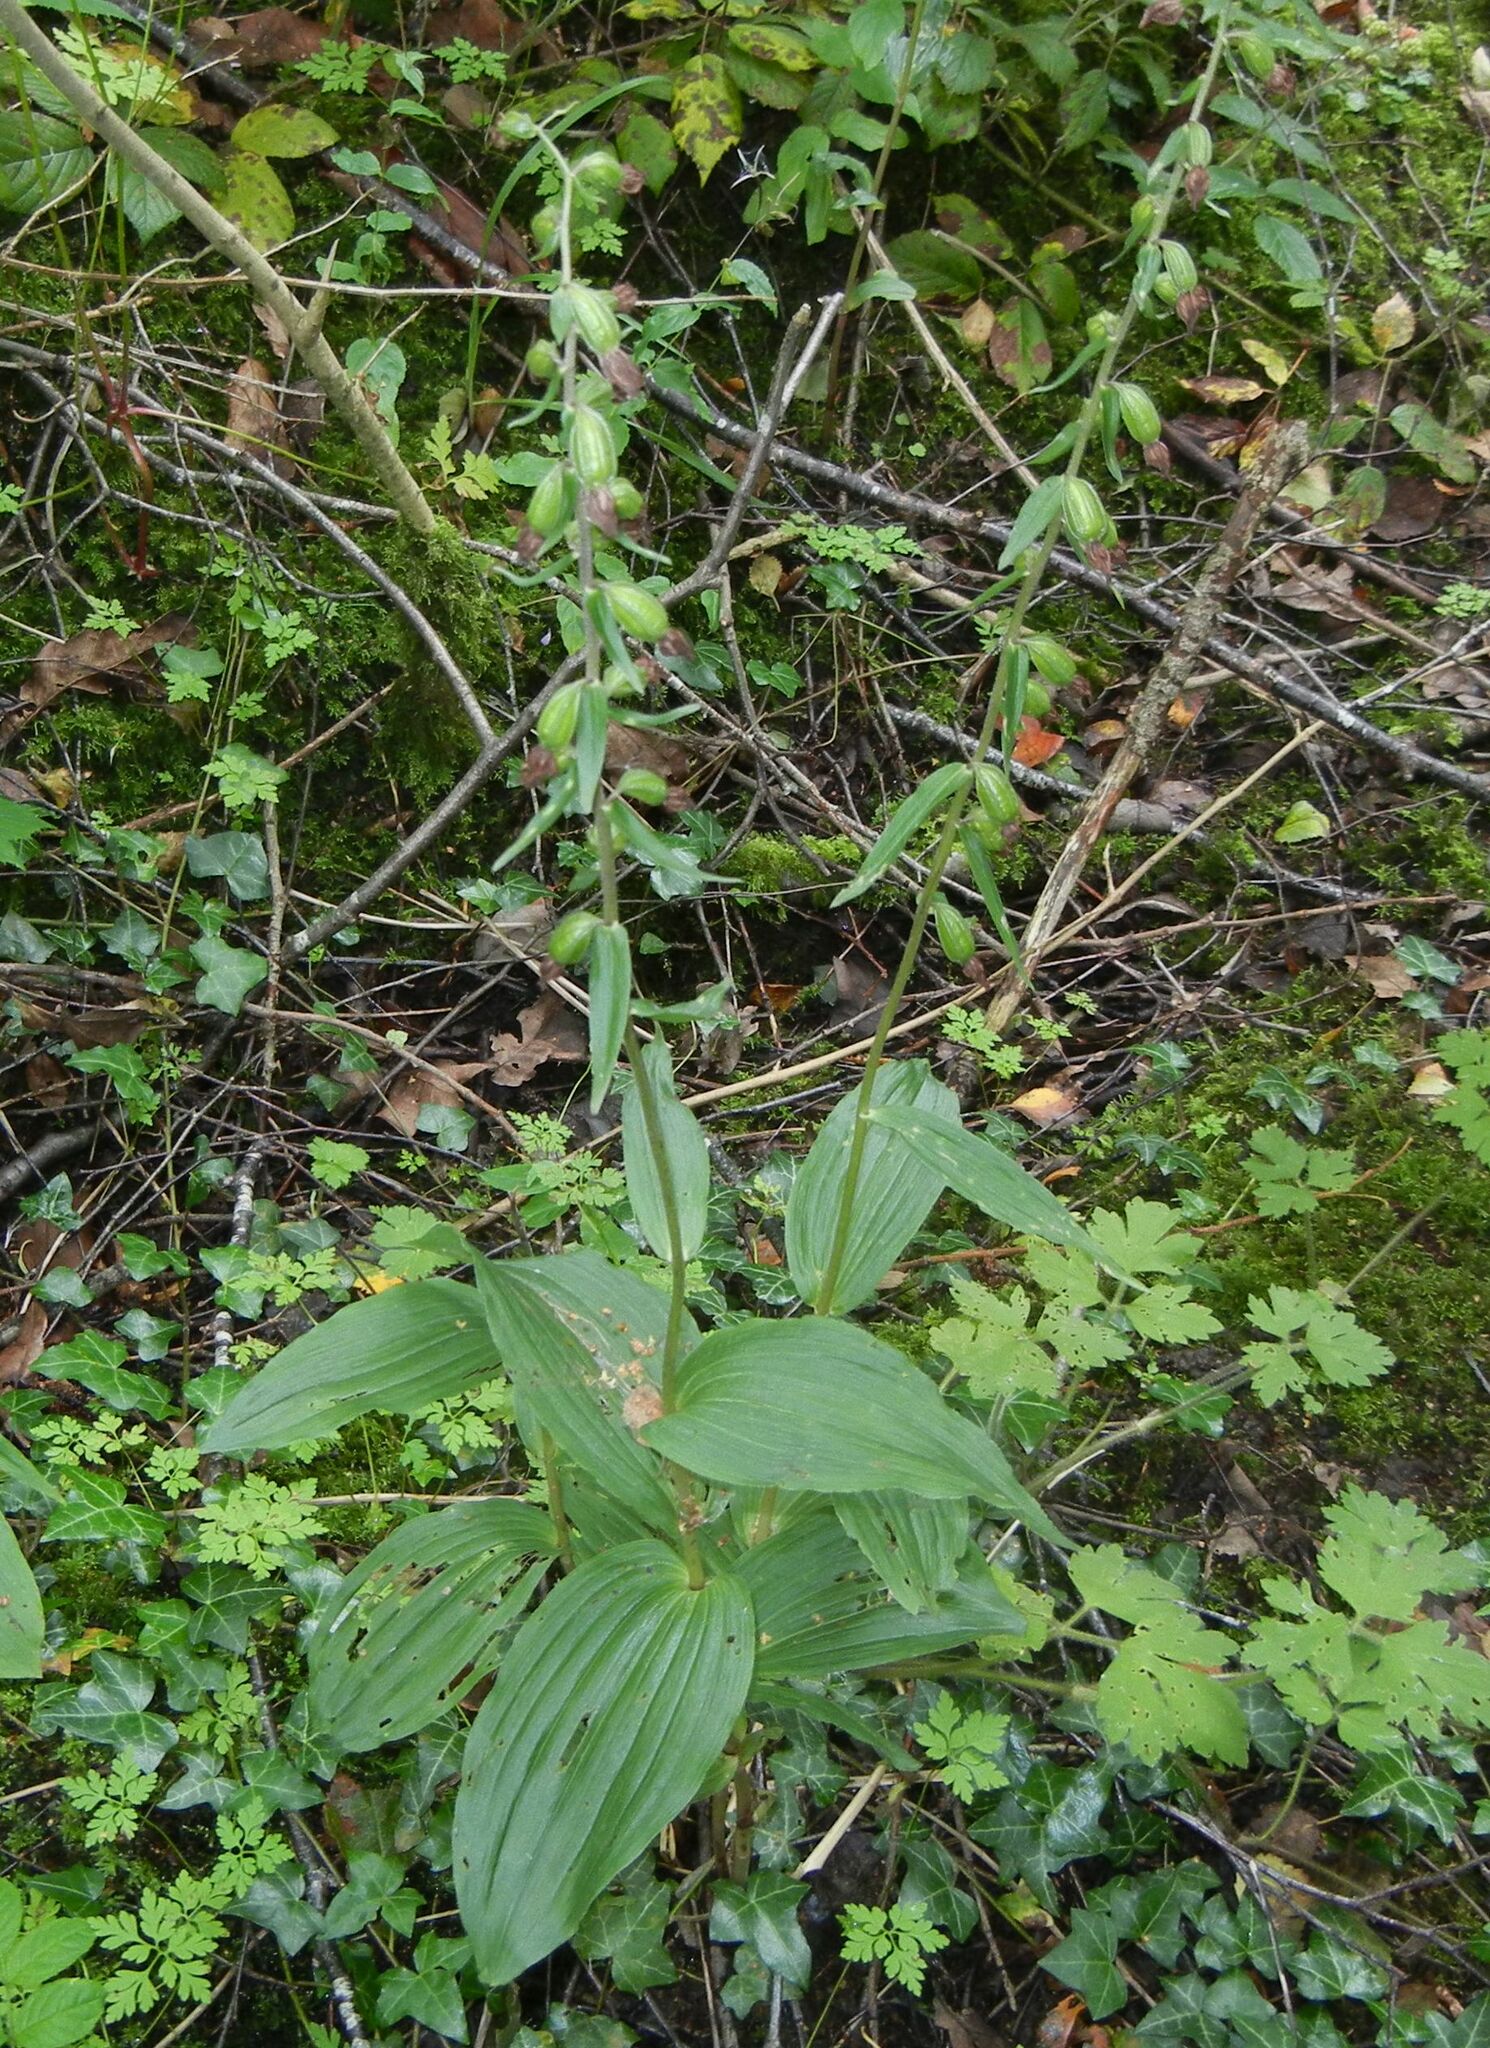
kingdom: Plantae
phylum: Tracheophyta
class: Liliopsida
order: Asparagales
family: Orchidaceae
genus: Epipactis
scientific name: Epipactis helleborine
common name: Broad-leaved helleborine
